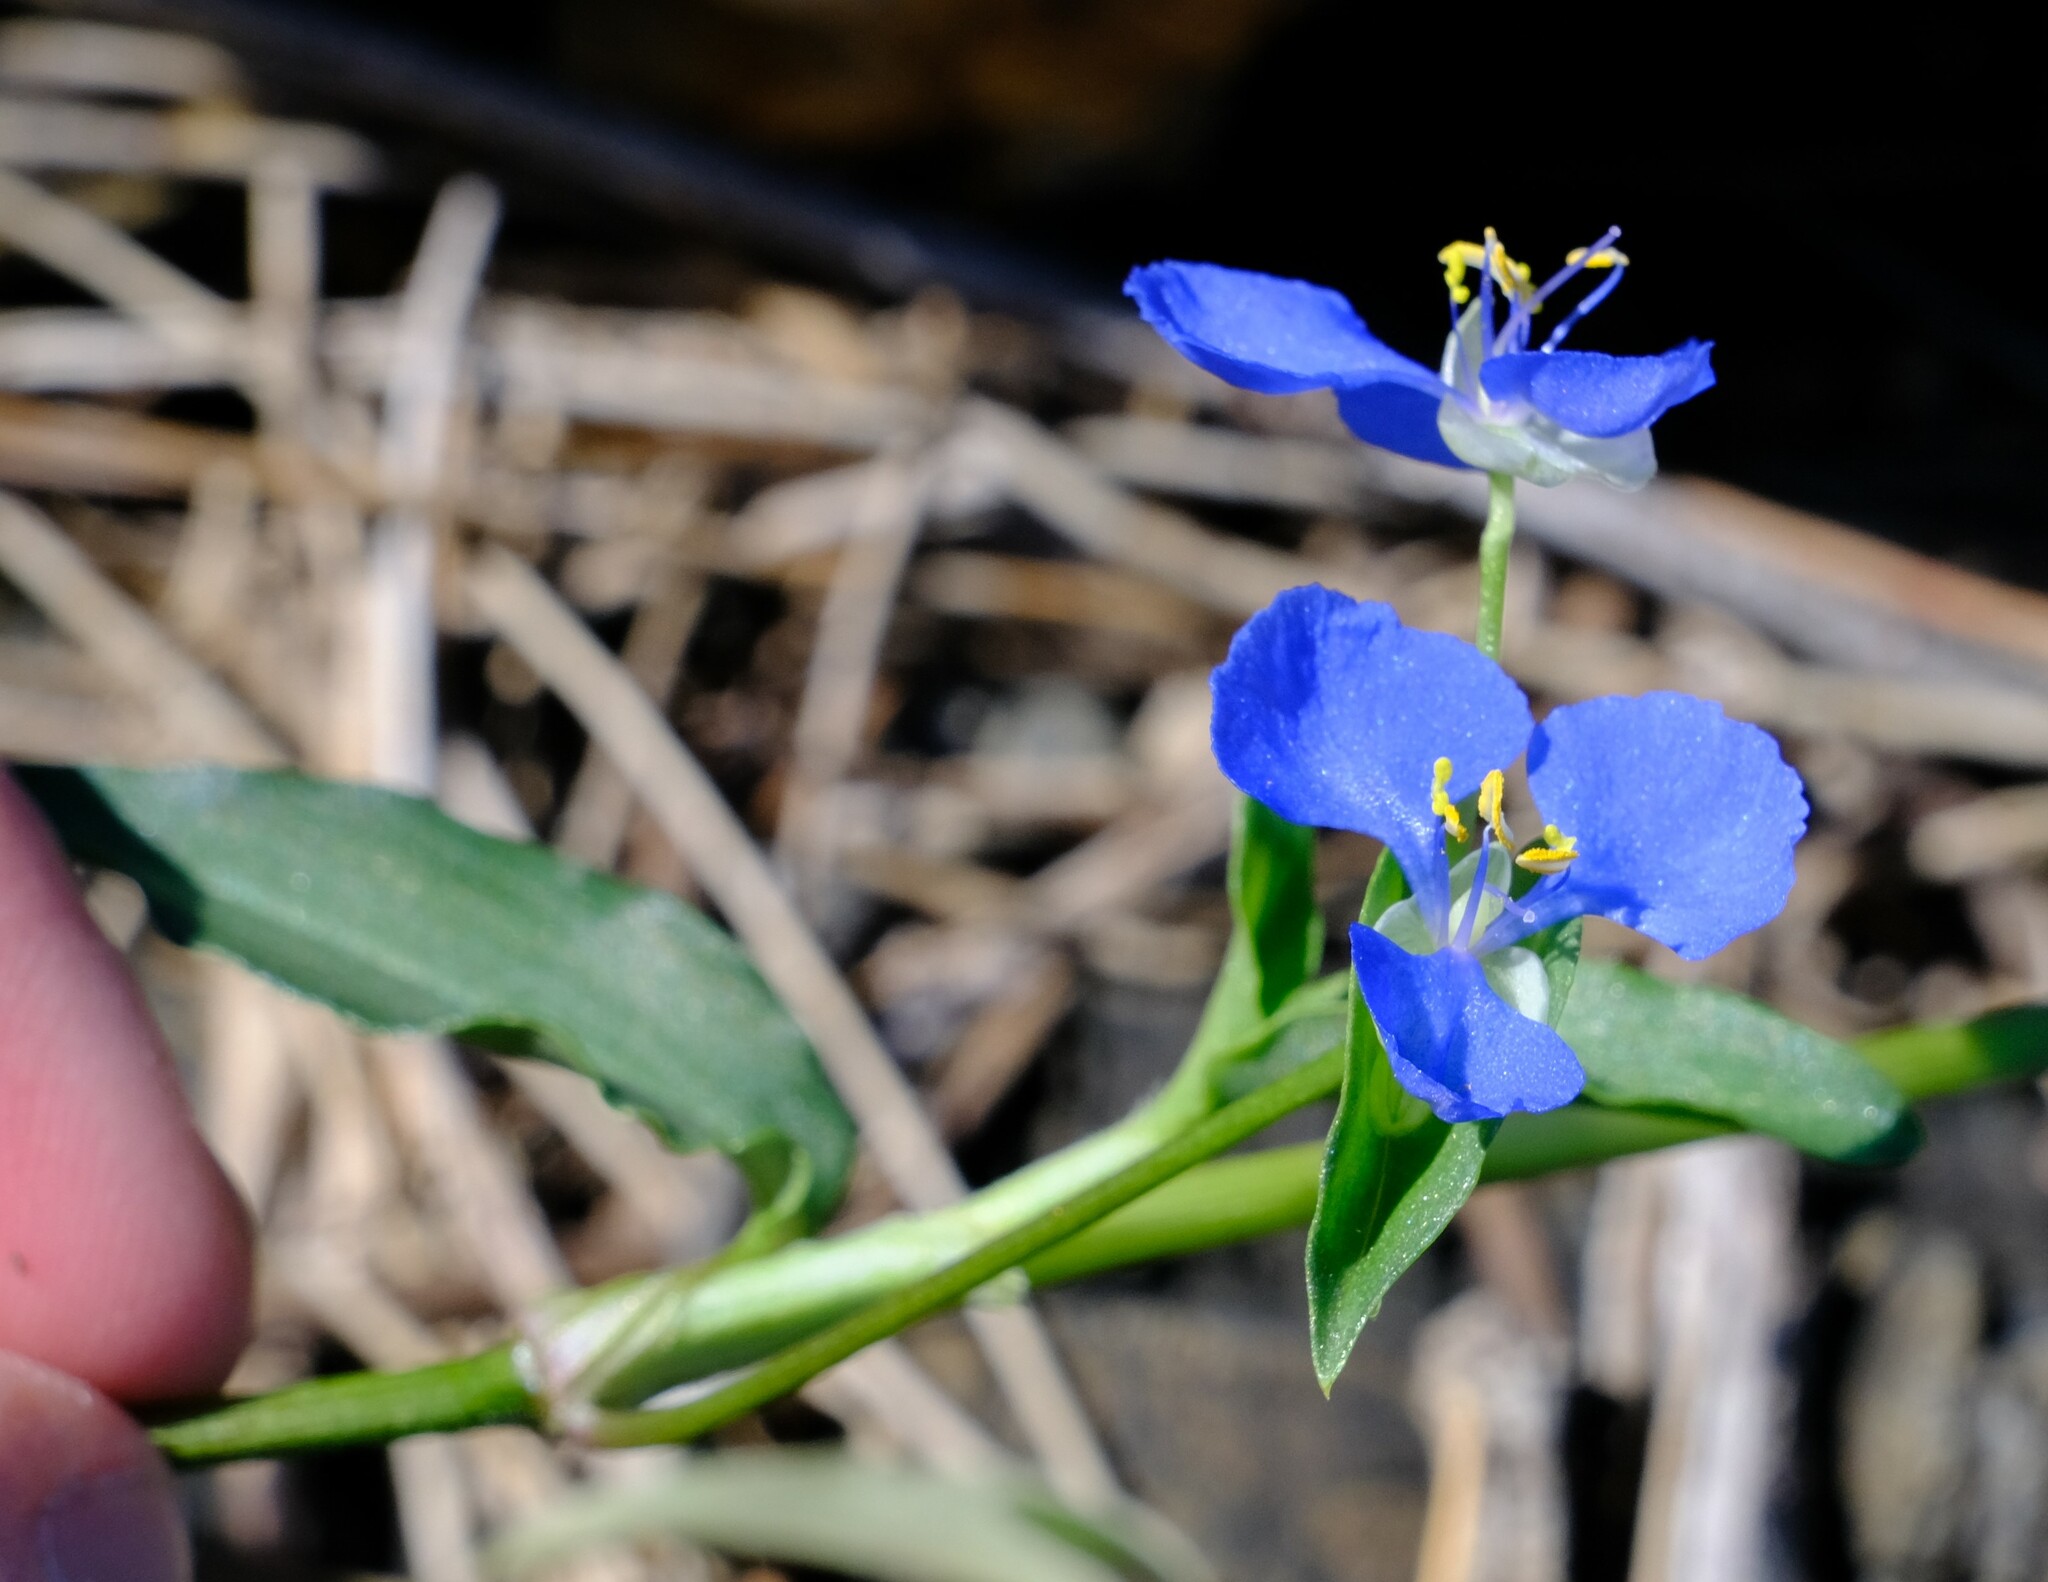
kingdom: Plantae
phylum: Tracheophyta
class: Liliopsida
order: Commelinales
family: Commelinaceae
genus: Commelina
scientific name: Commelina cyanea
